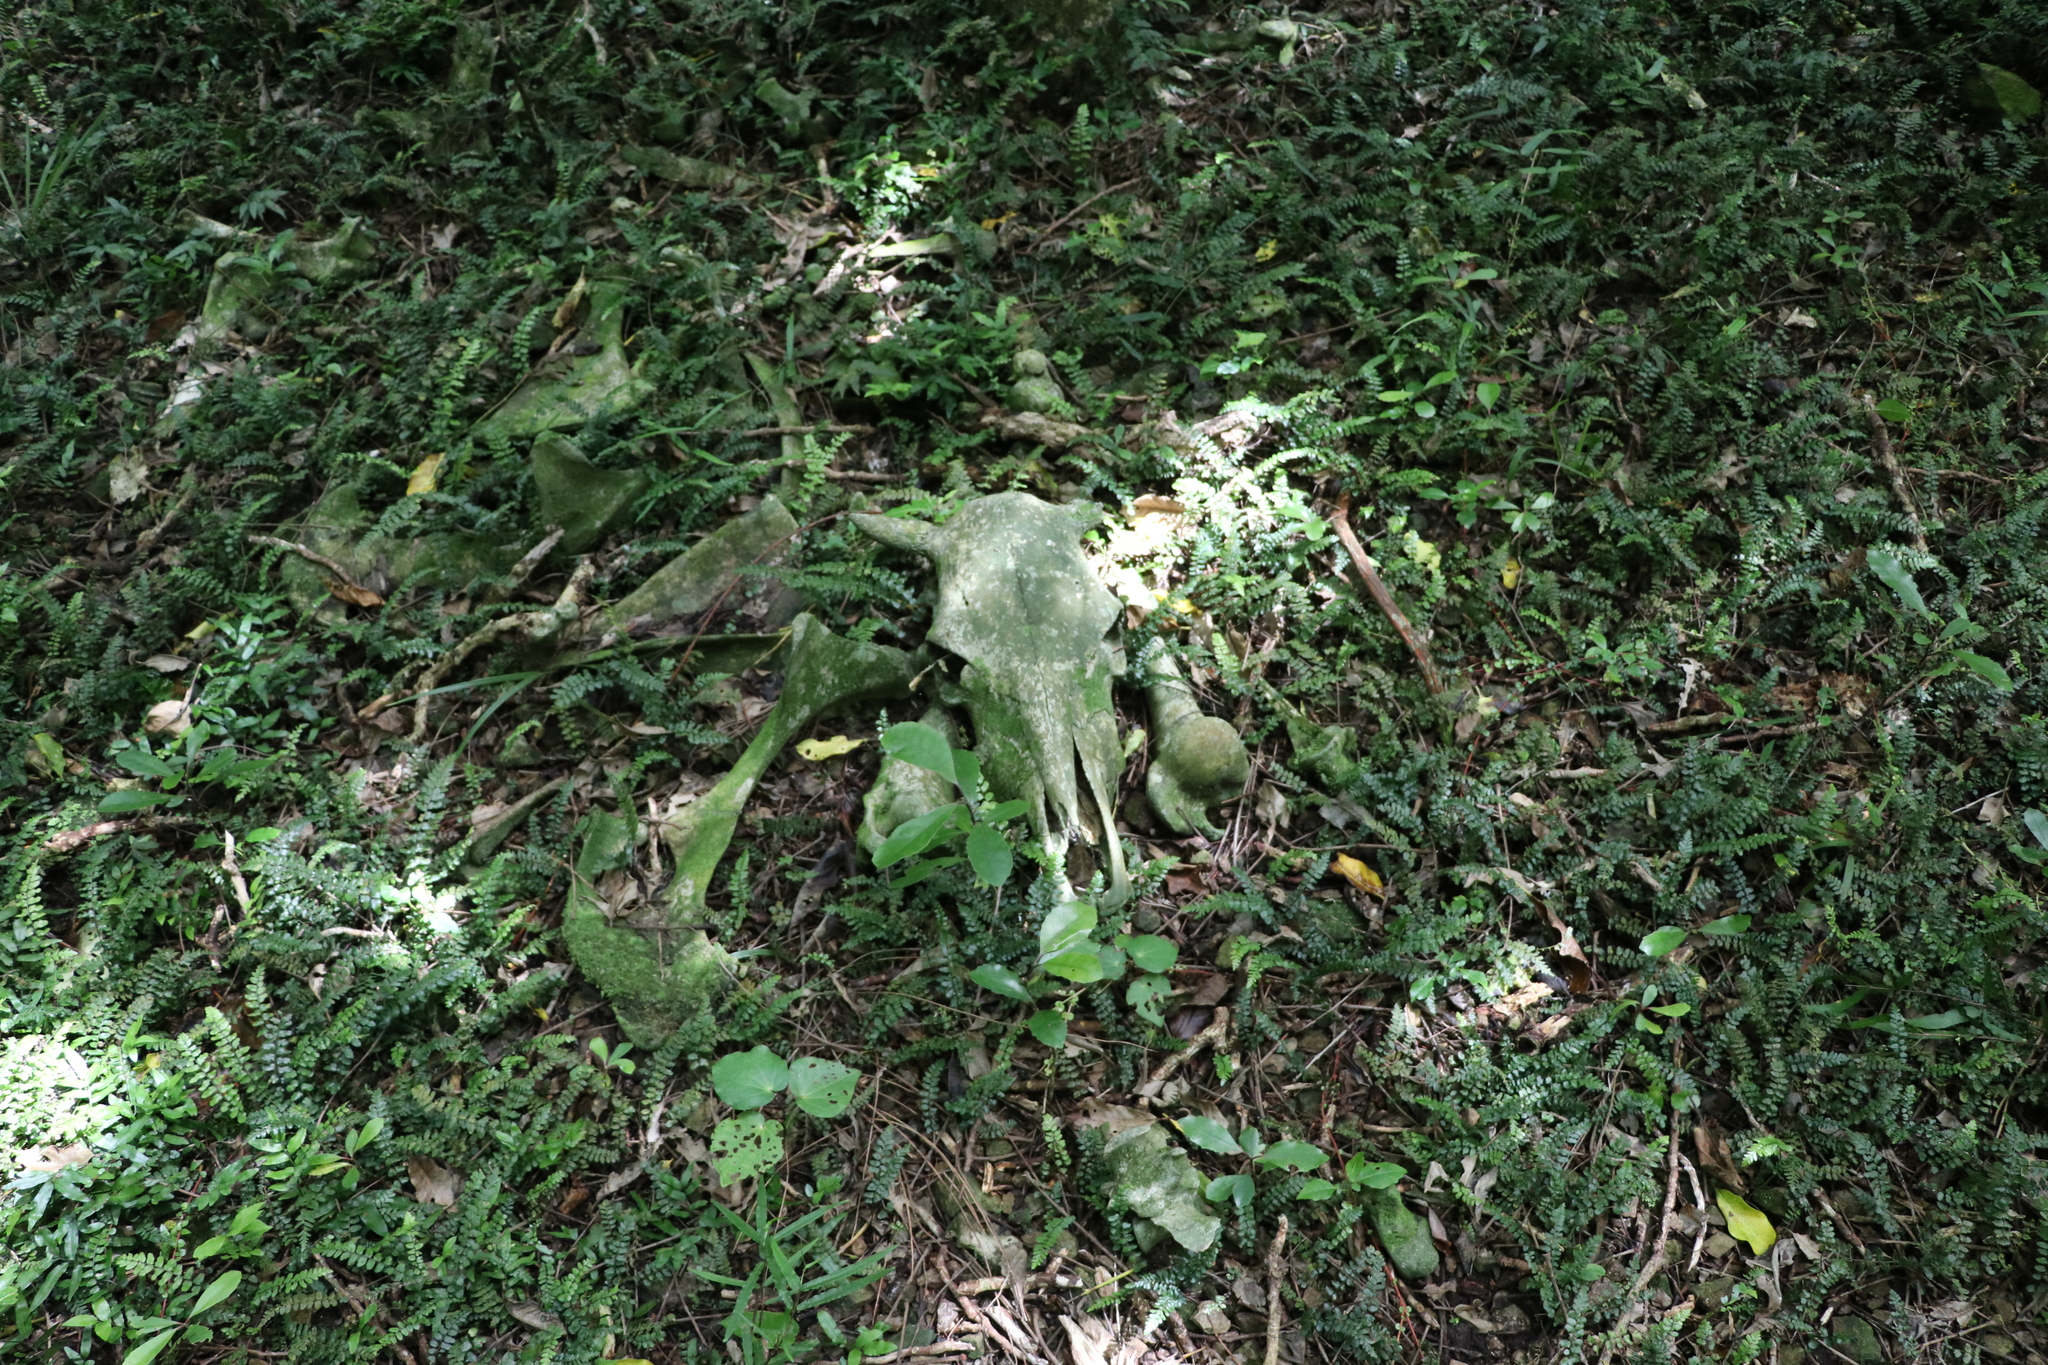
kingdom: Animalia
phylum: Chordata
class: Mammalia
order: Artiodactyla
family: Bovidae
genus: Bos
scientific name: Bos taurus
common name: Domesticated cattle
